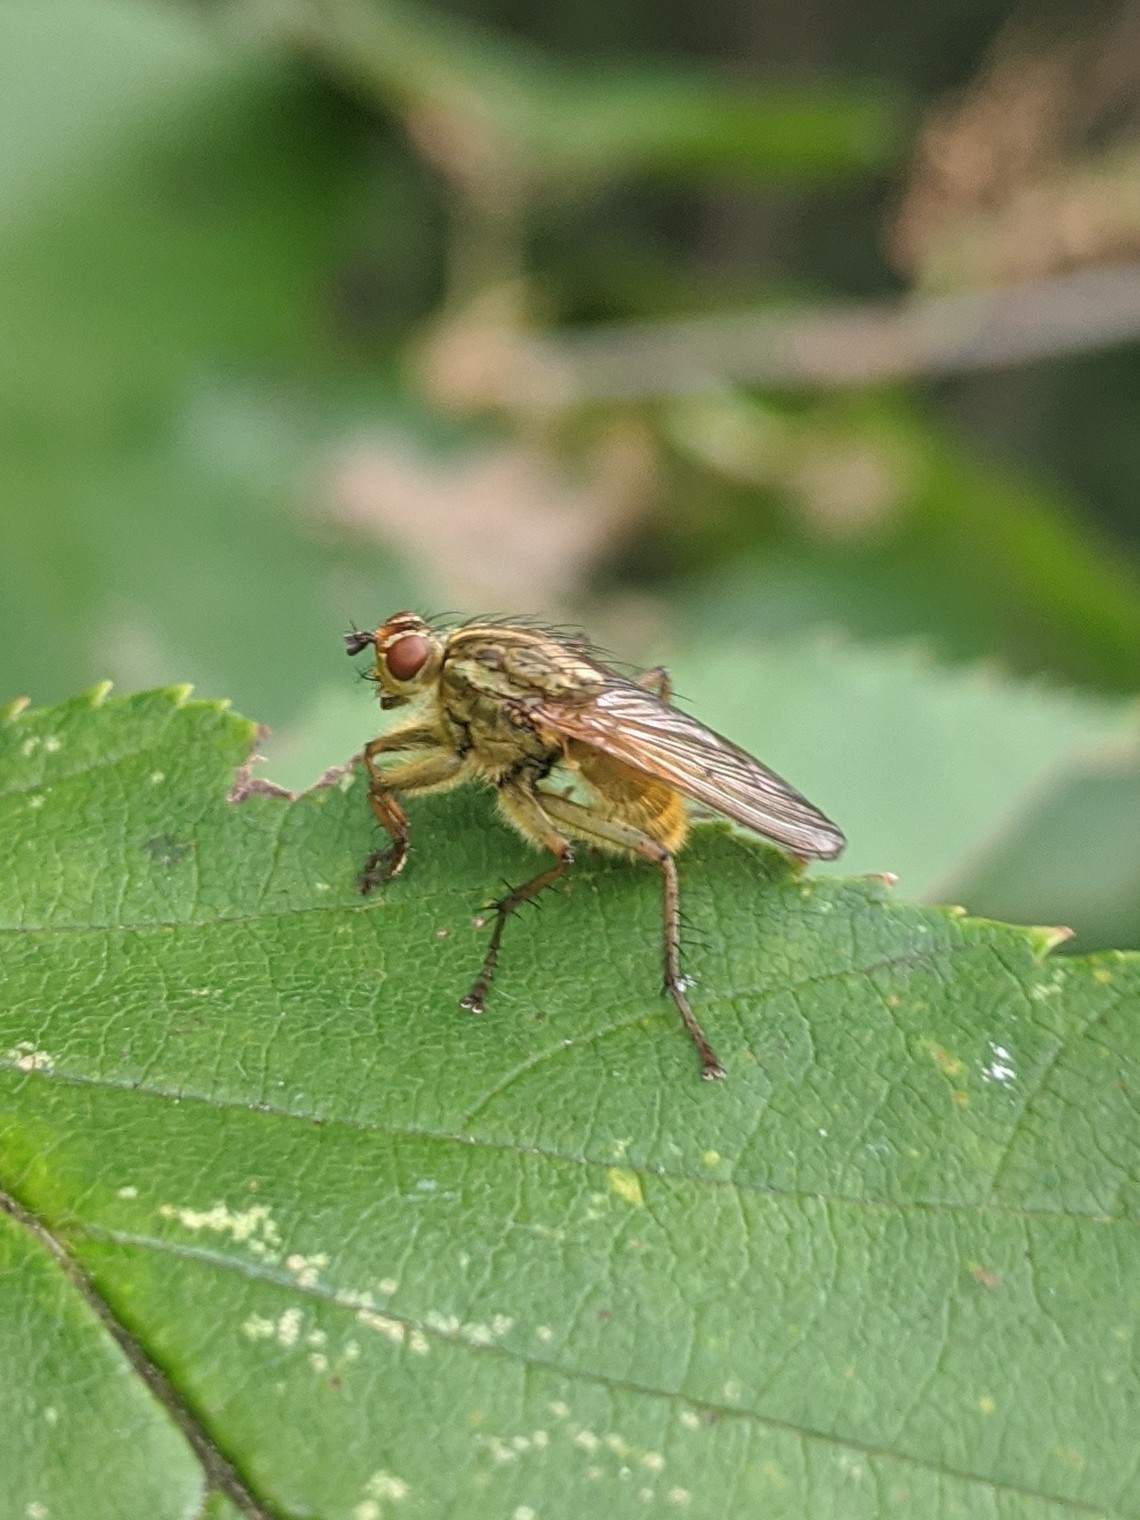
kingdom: Animalia
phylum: Arthropoda
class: Insecta
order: Diptera
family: Scathophagidae
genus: Scathophaga
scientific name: Scathophaga stercoraria
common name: Yellow dung fly
